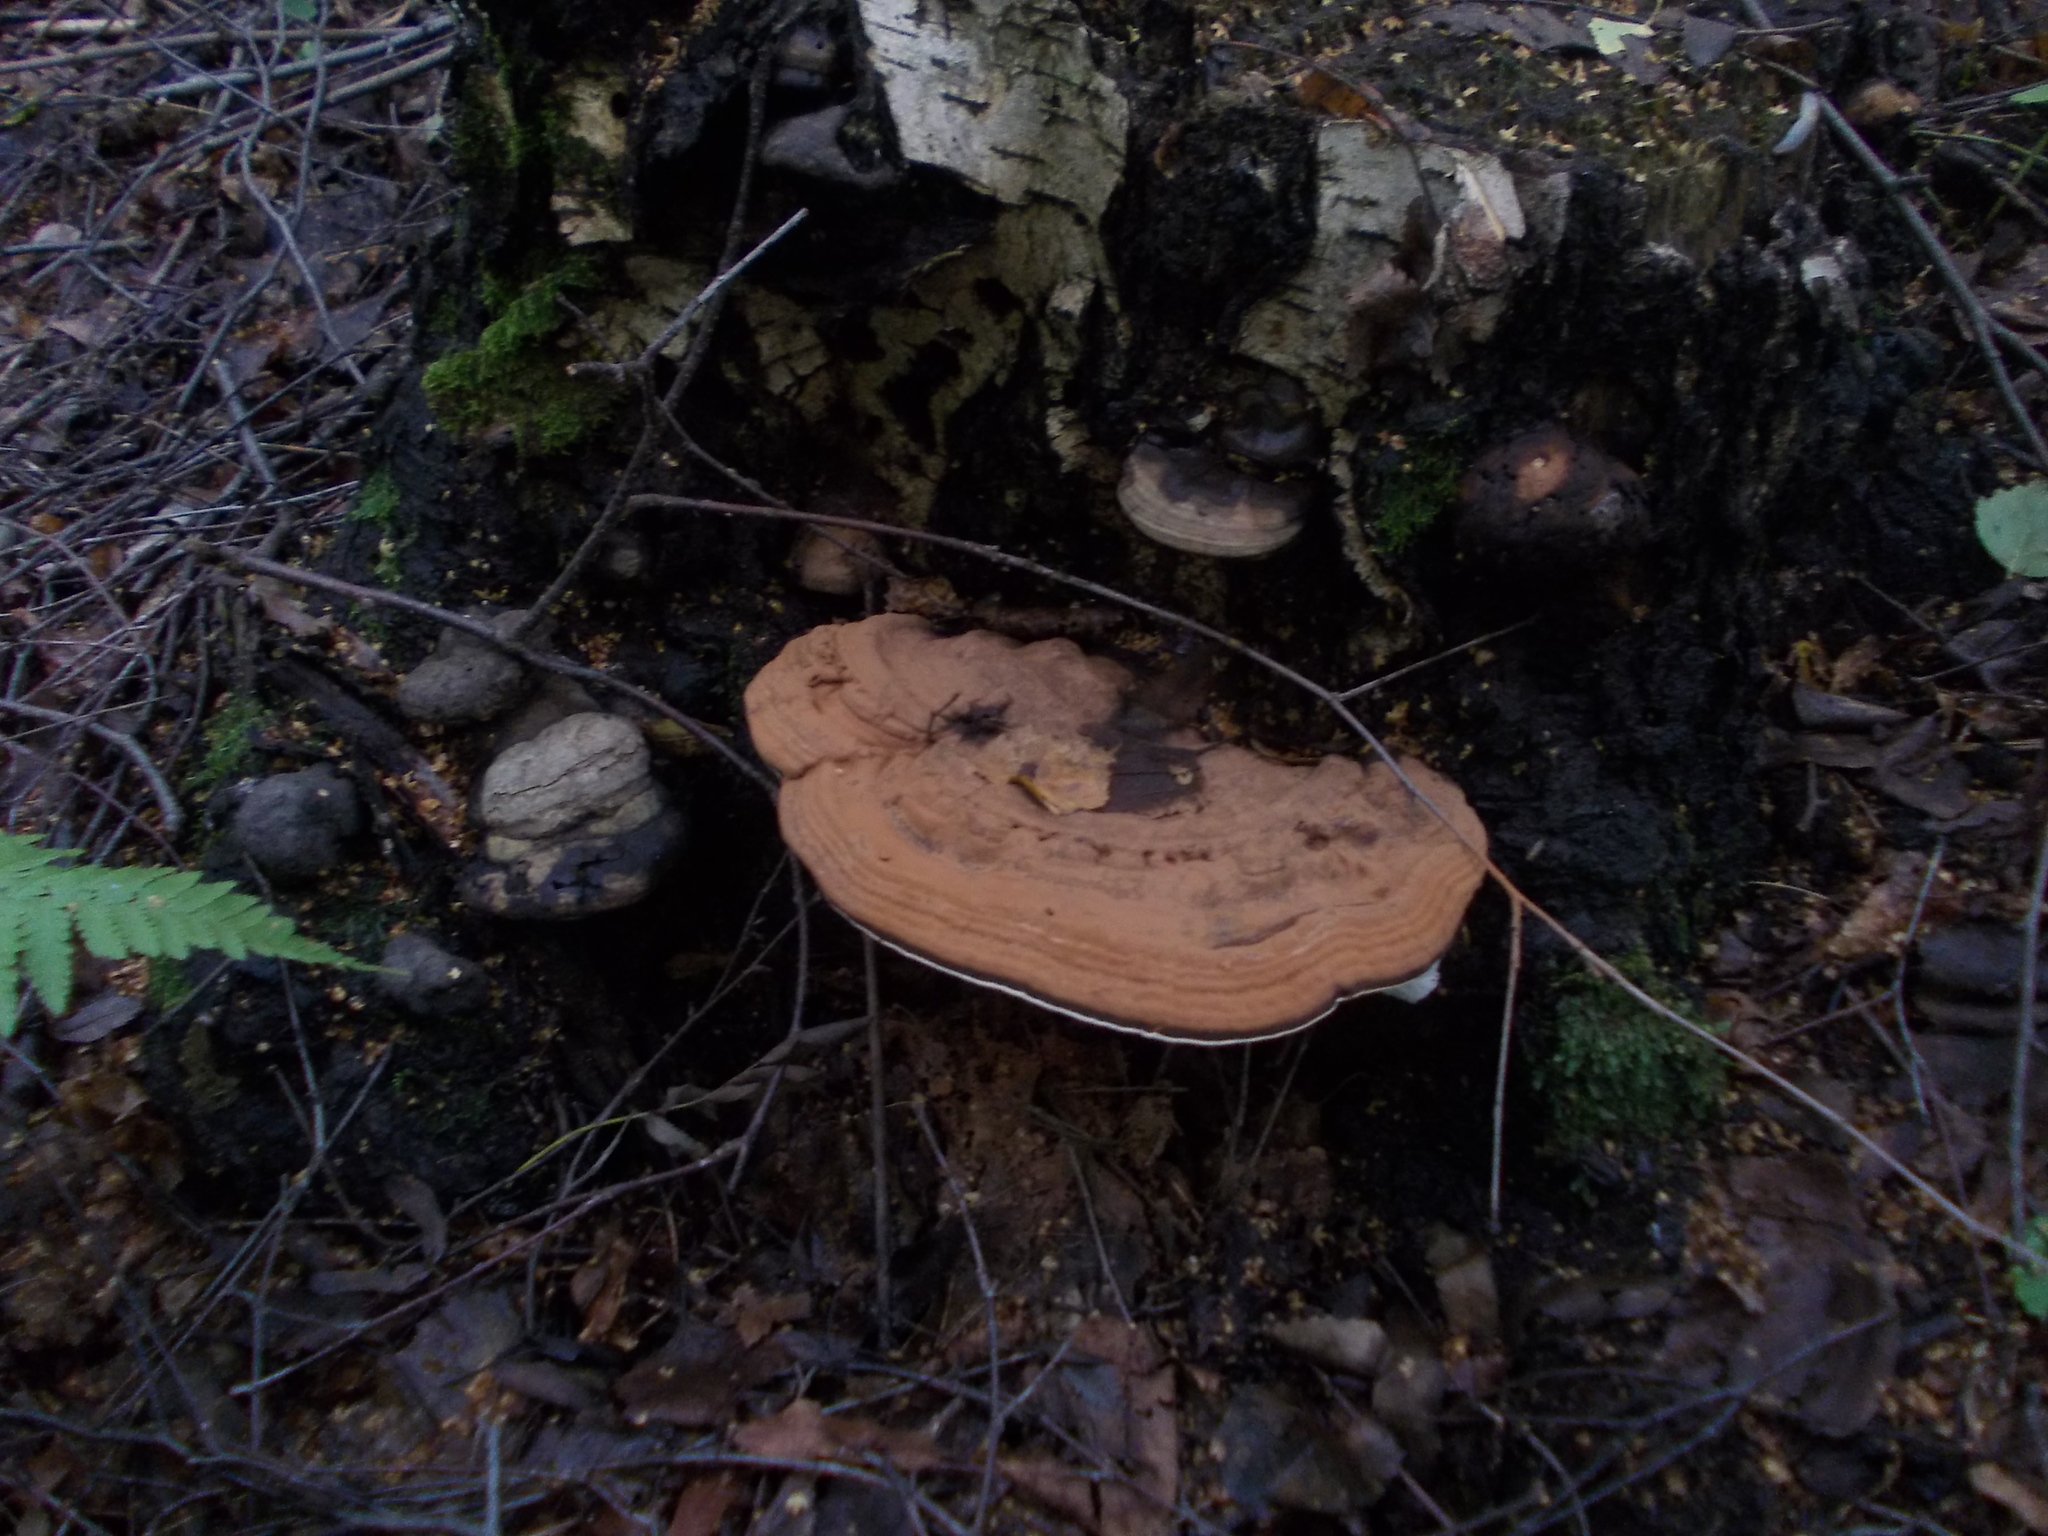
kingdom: Fungi
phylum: Basidiomycota
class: Agaricomycetes
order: Polyporales
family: Polyporaceae
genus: Ganoderma
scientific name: Ganoderma applanatum
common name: Artist's bracket
